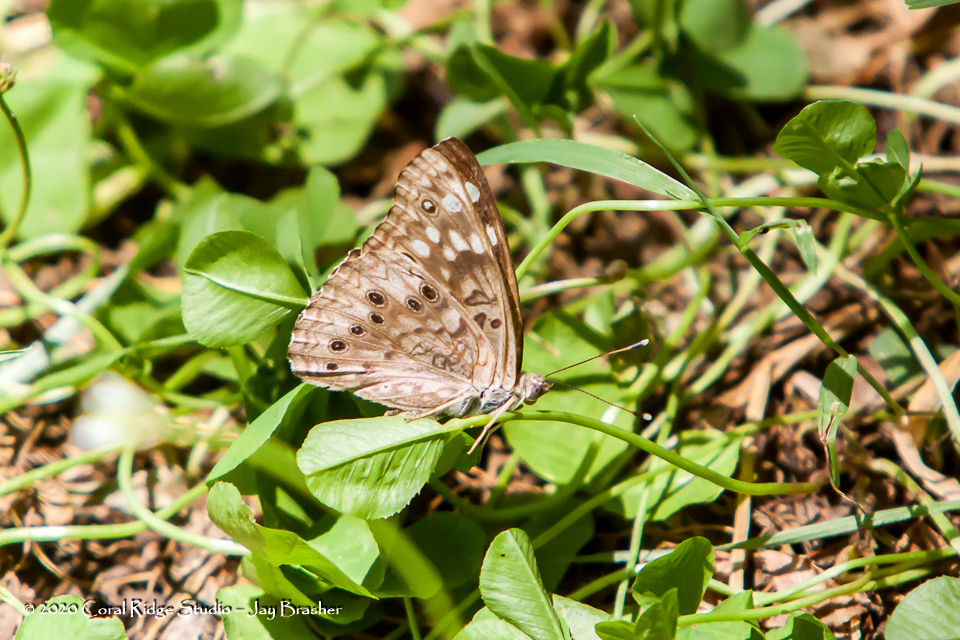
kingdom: Animalia
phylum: Arthropoda
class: Insecta
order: Lepidoptera
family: Nymphalidae
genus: Asterocampa
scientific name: Asterocampa celtis
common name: Hackberry emperor
